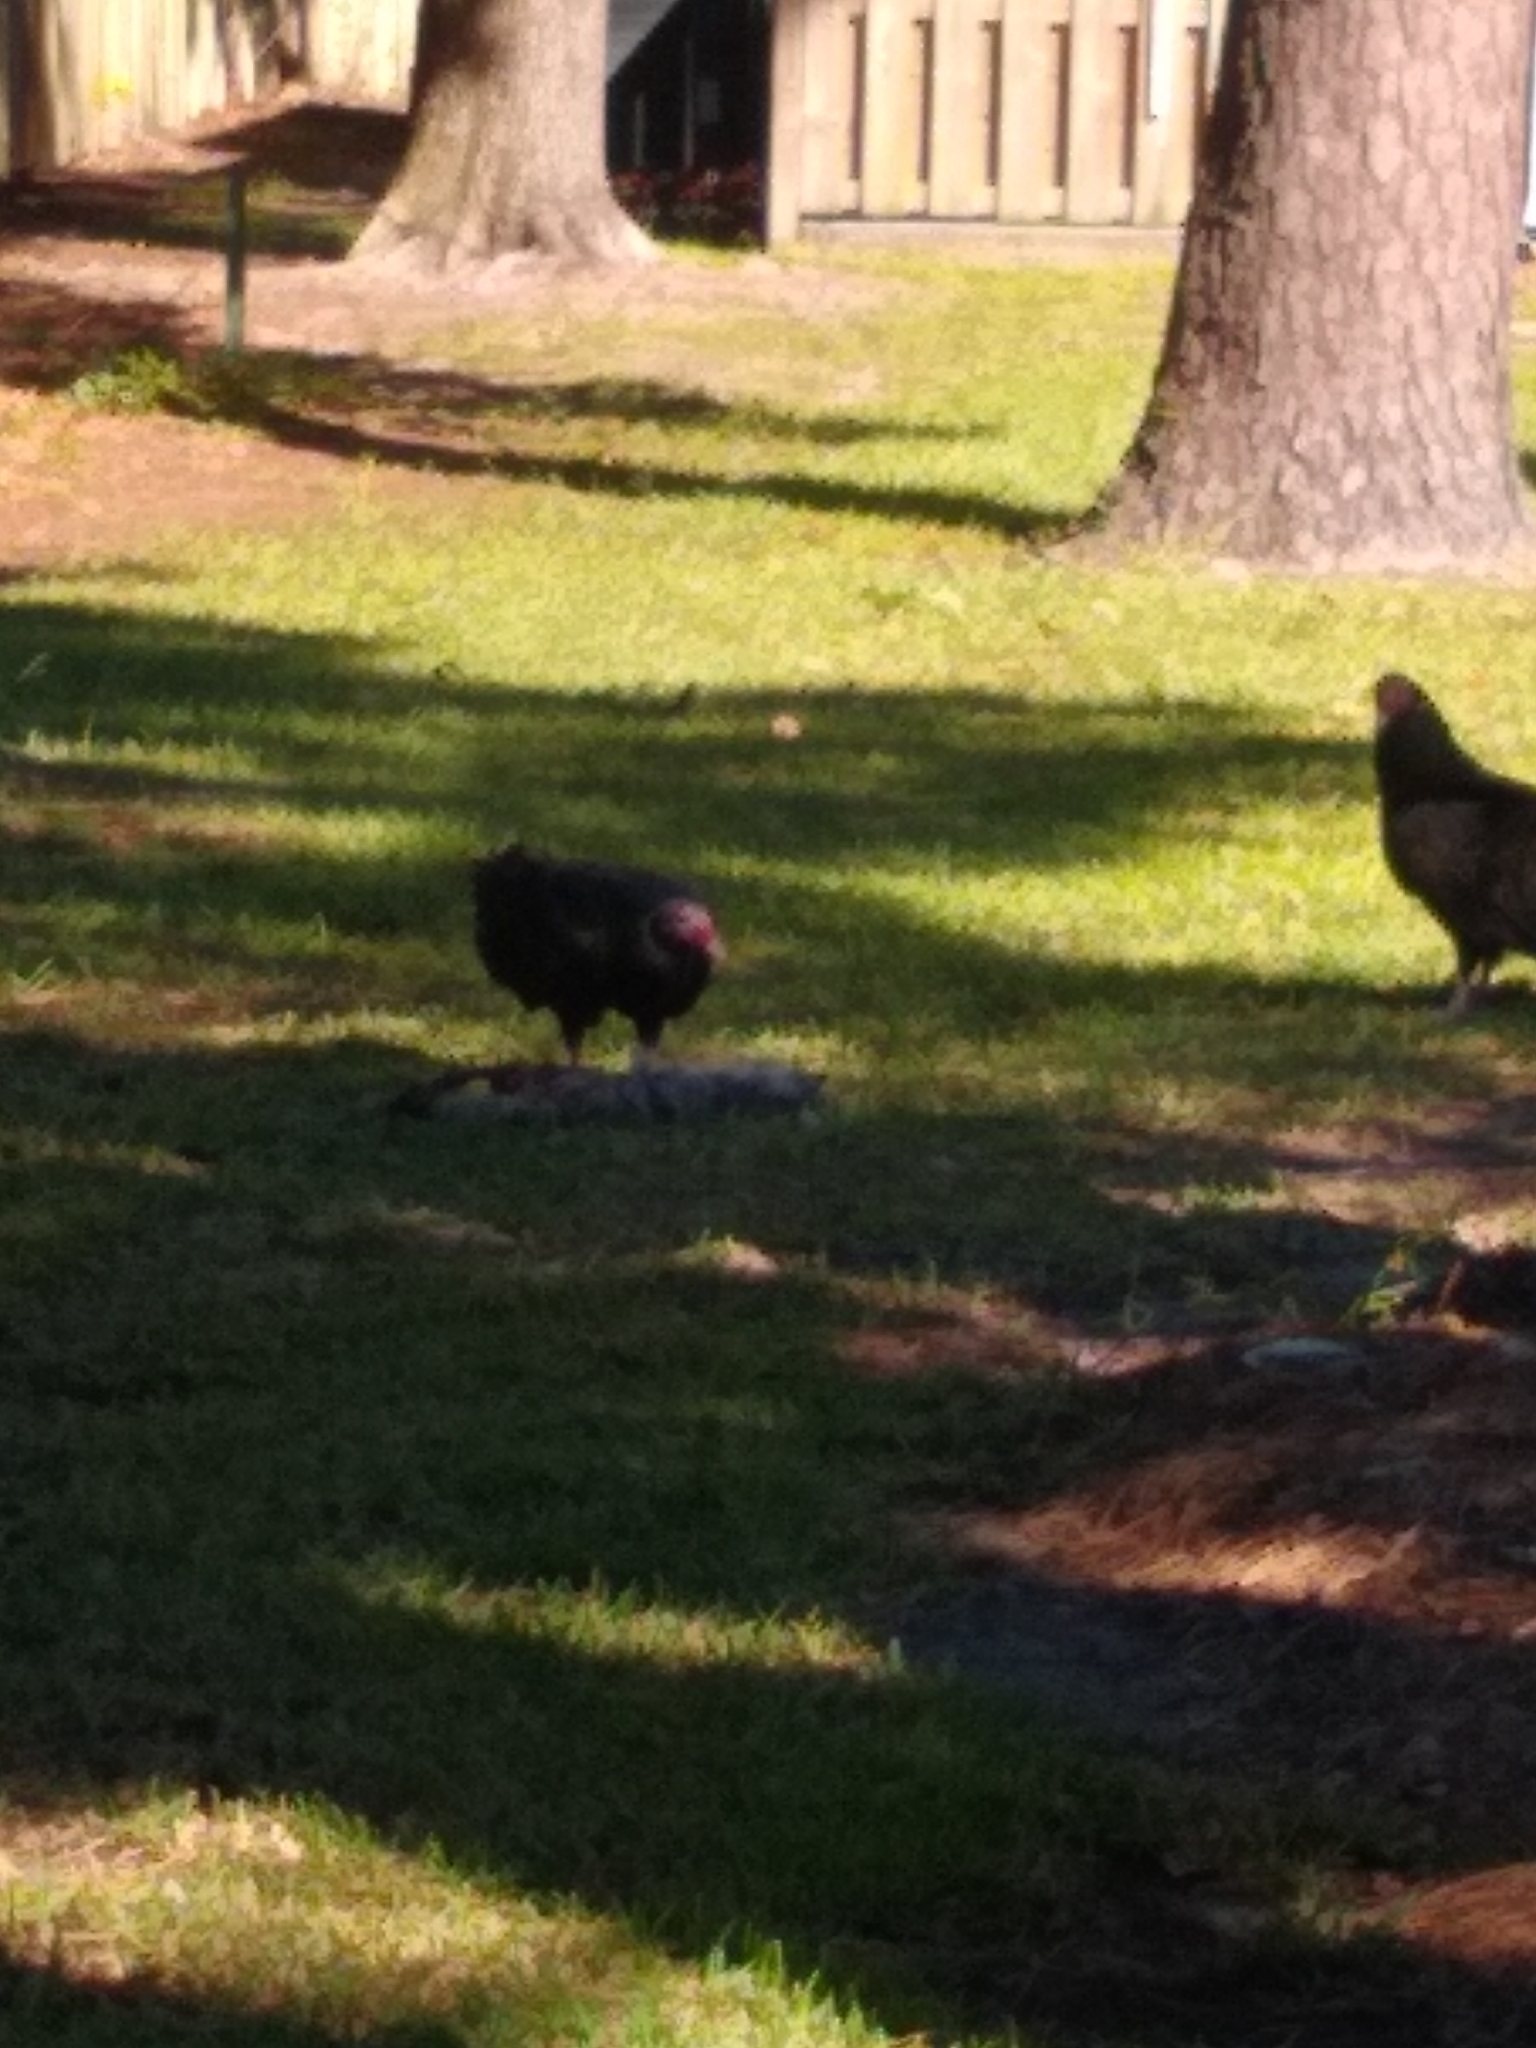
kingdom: Animalia
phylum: Chordata
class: Aves
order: Accipitriformes
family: Cathartidae
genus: Cathartes
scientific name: Cathartes aura
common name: Turkey vulture
